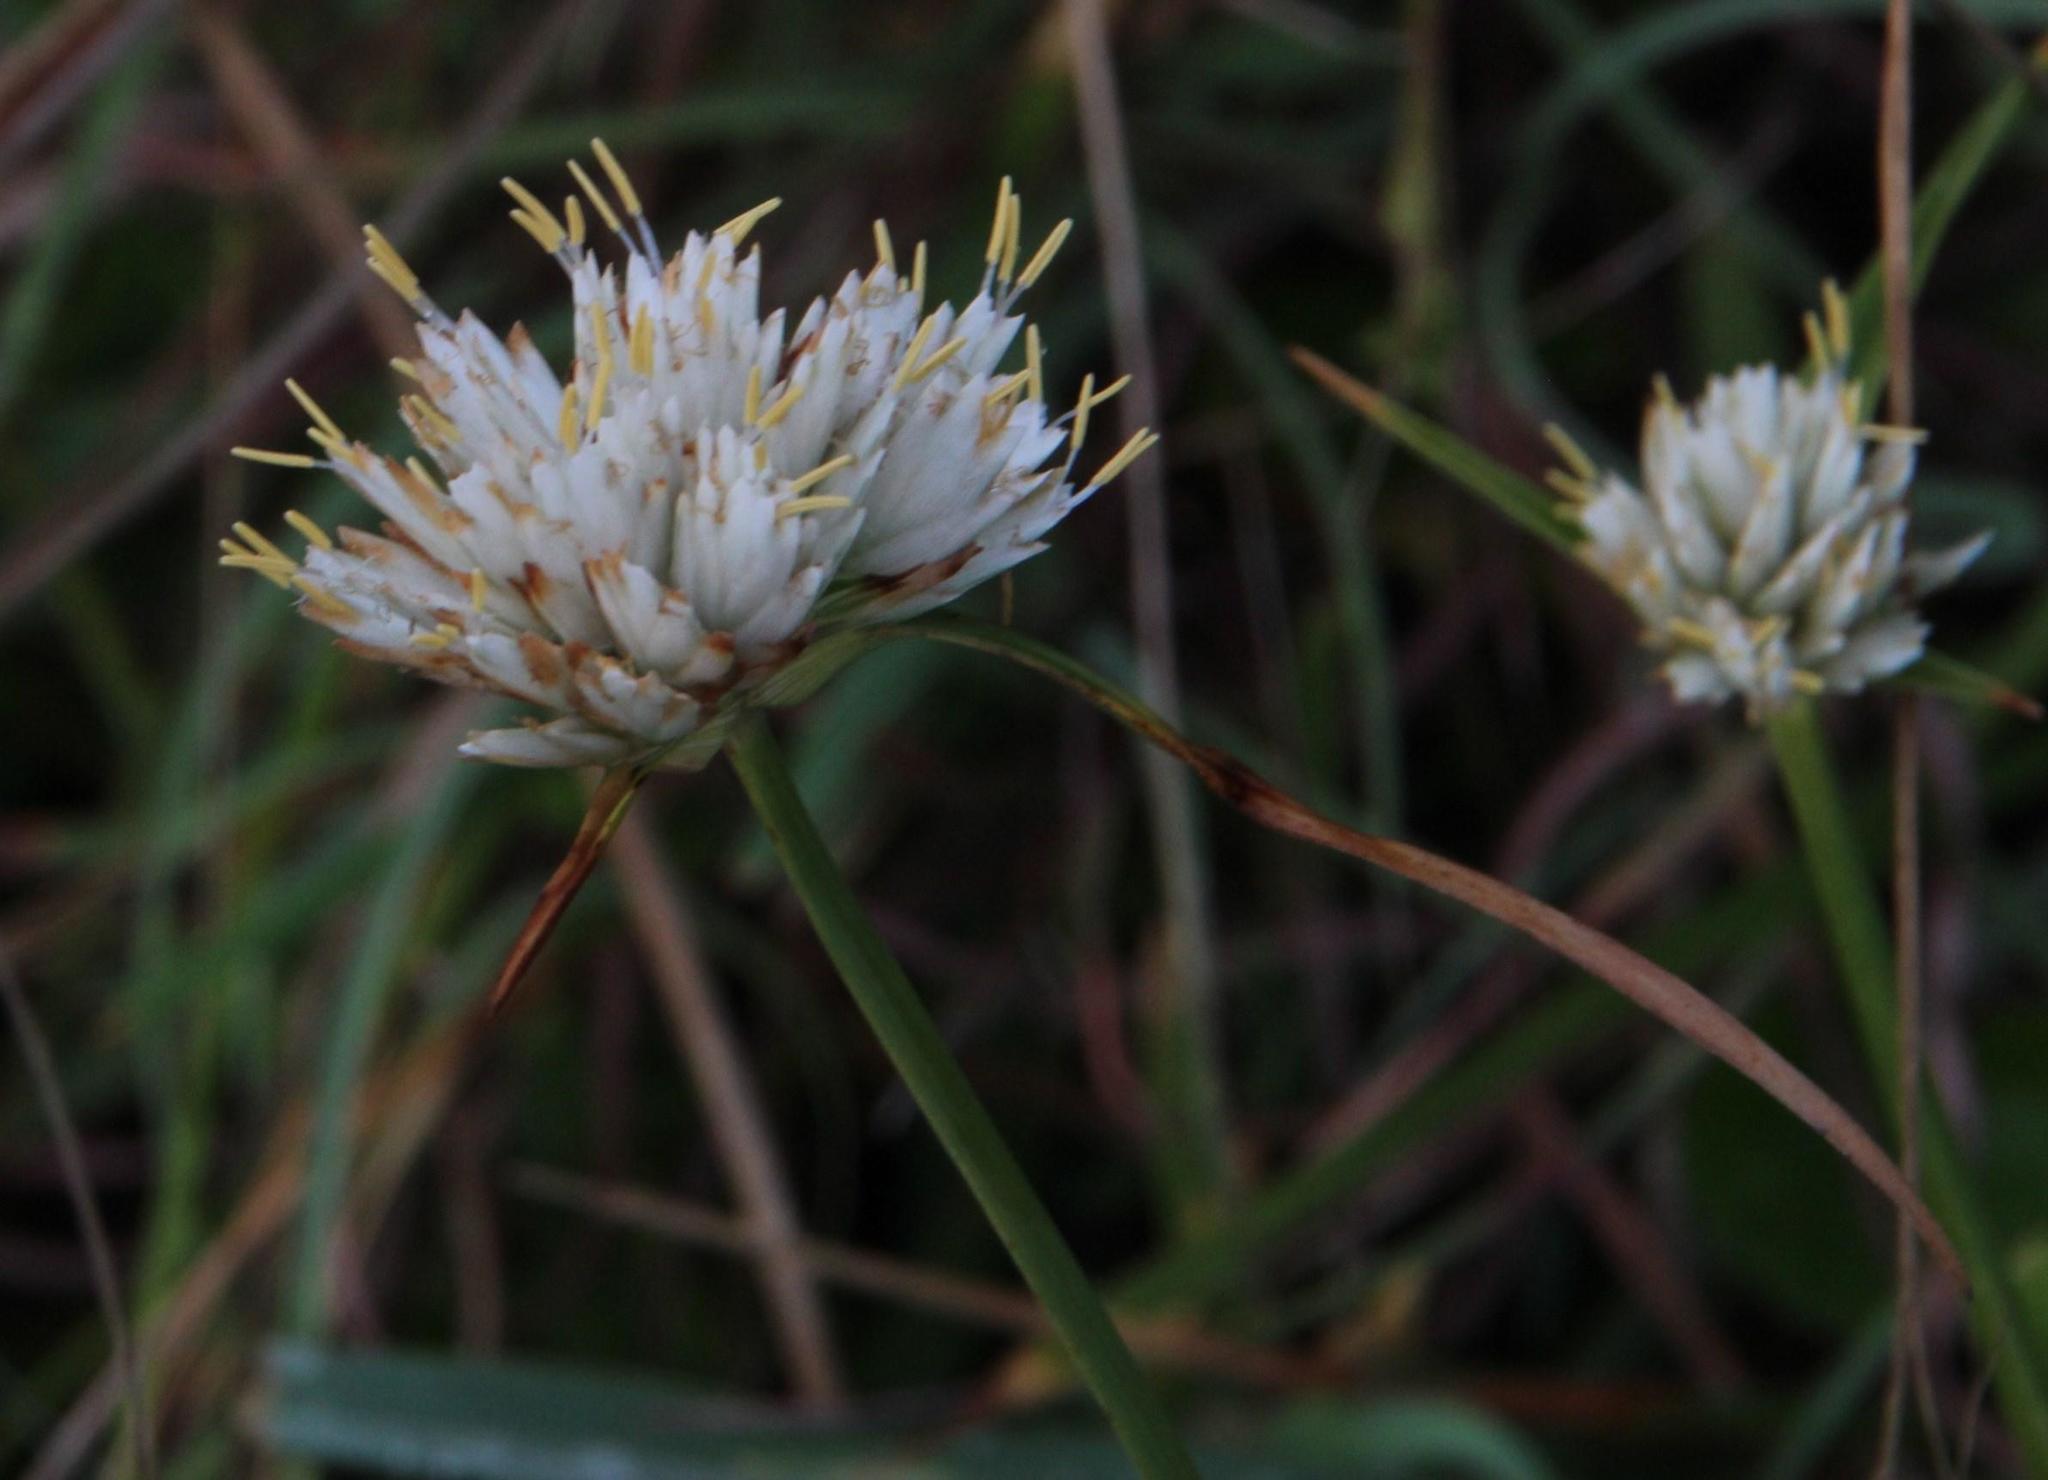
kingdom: Plantae
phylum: Tracheophyta
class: Liliopsida
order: Poales
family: Cyperaceae
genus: Cyperus
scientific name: Cyperus niveus
